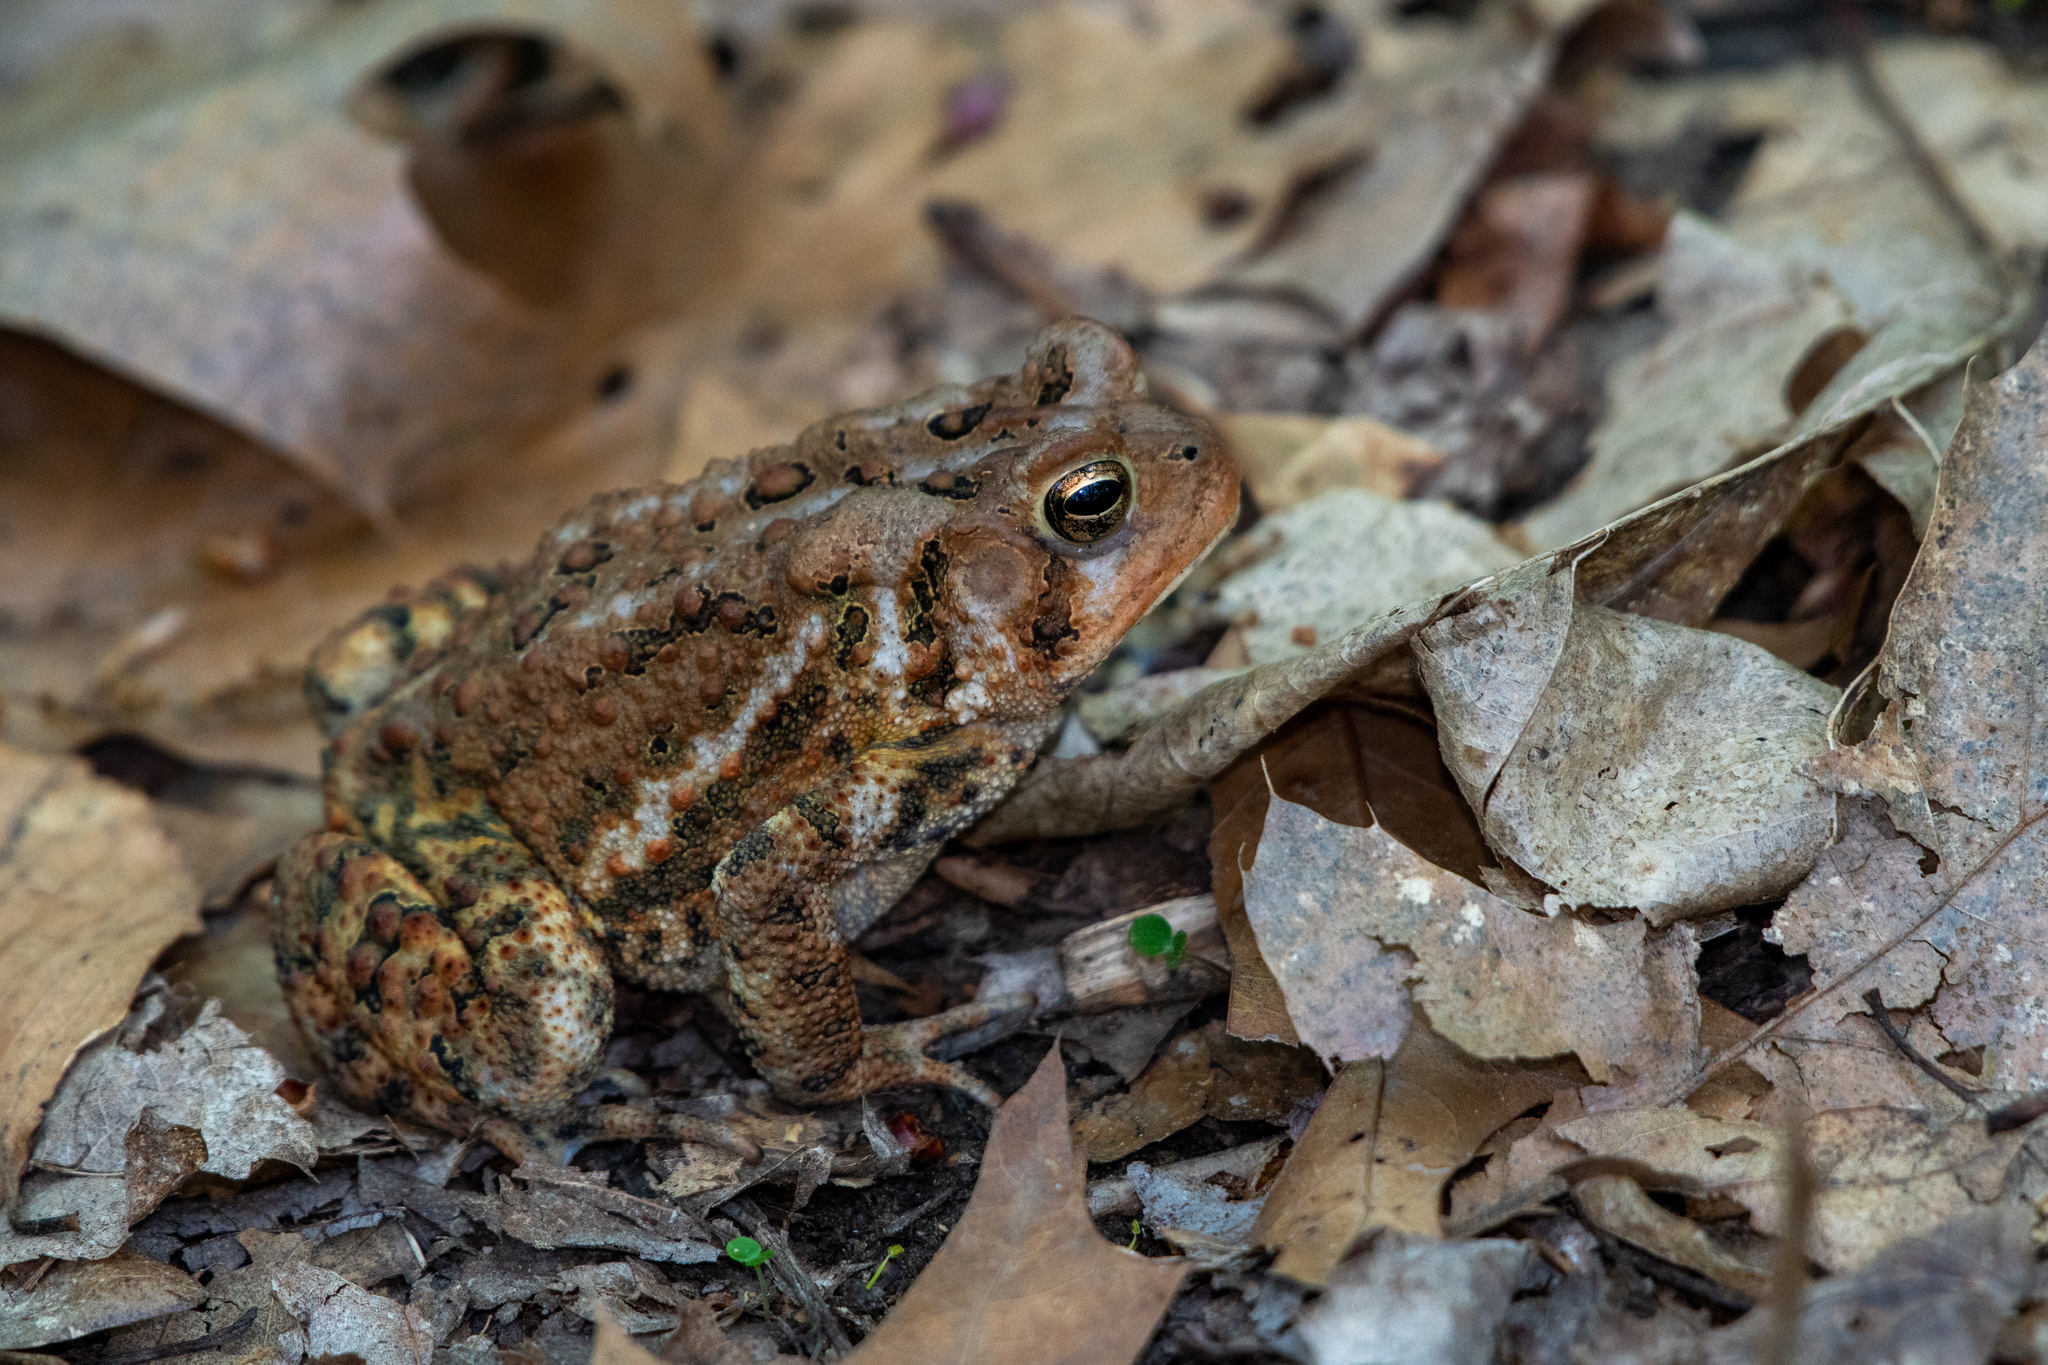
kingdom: Animalia
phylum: Chordata
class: Amphibia
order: Anura
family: Bufonidae
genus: Anaxyrus
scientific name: Anaxyrus americanus
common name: American toad
